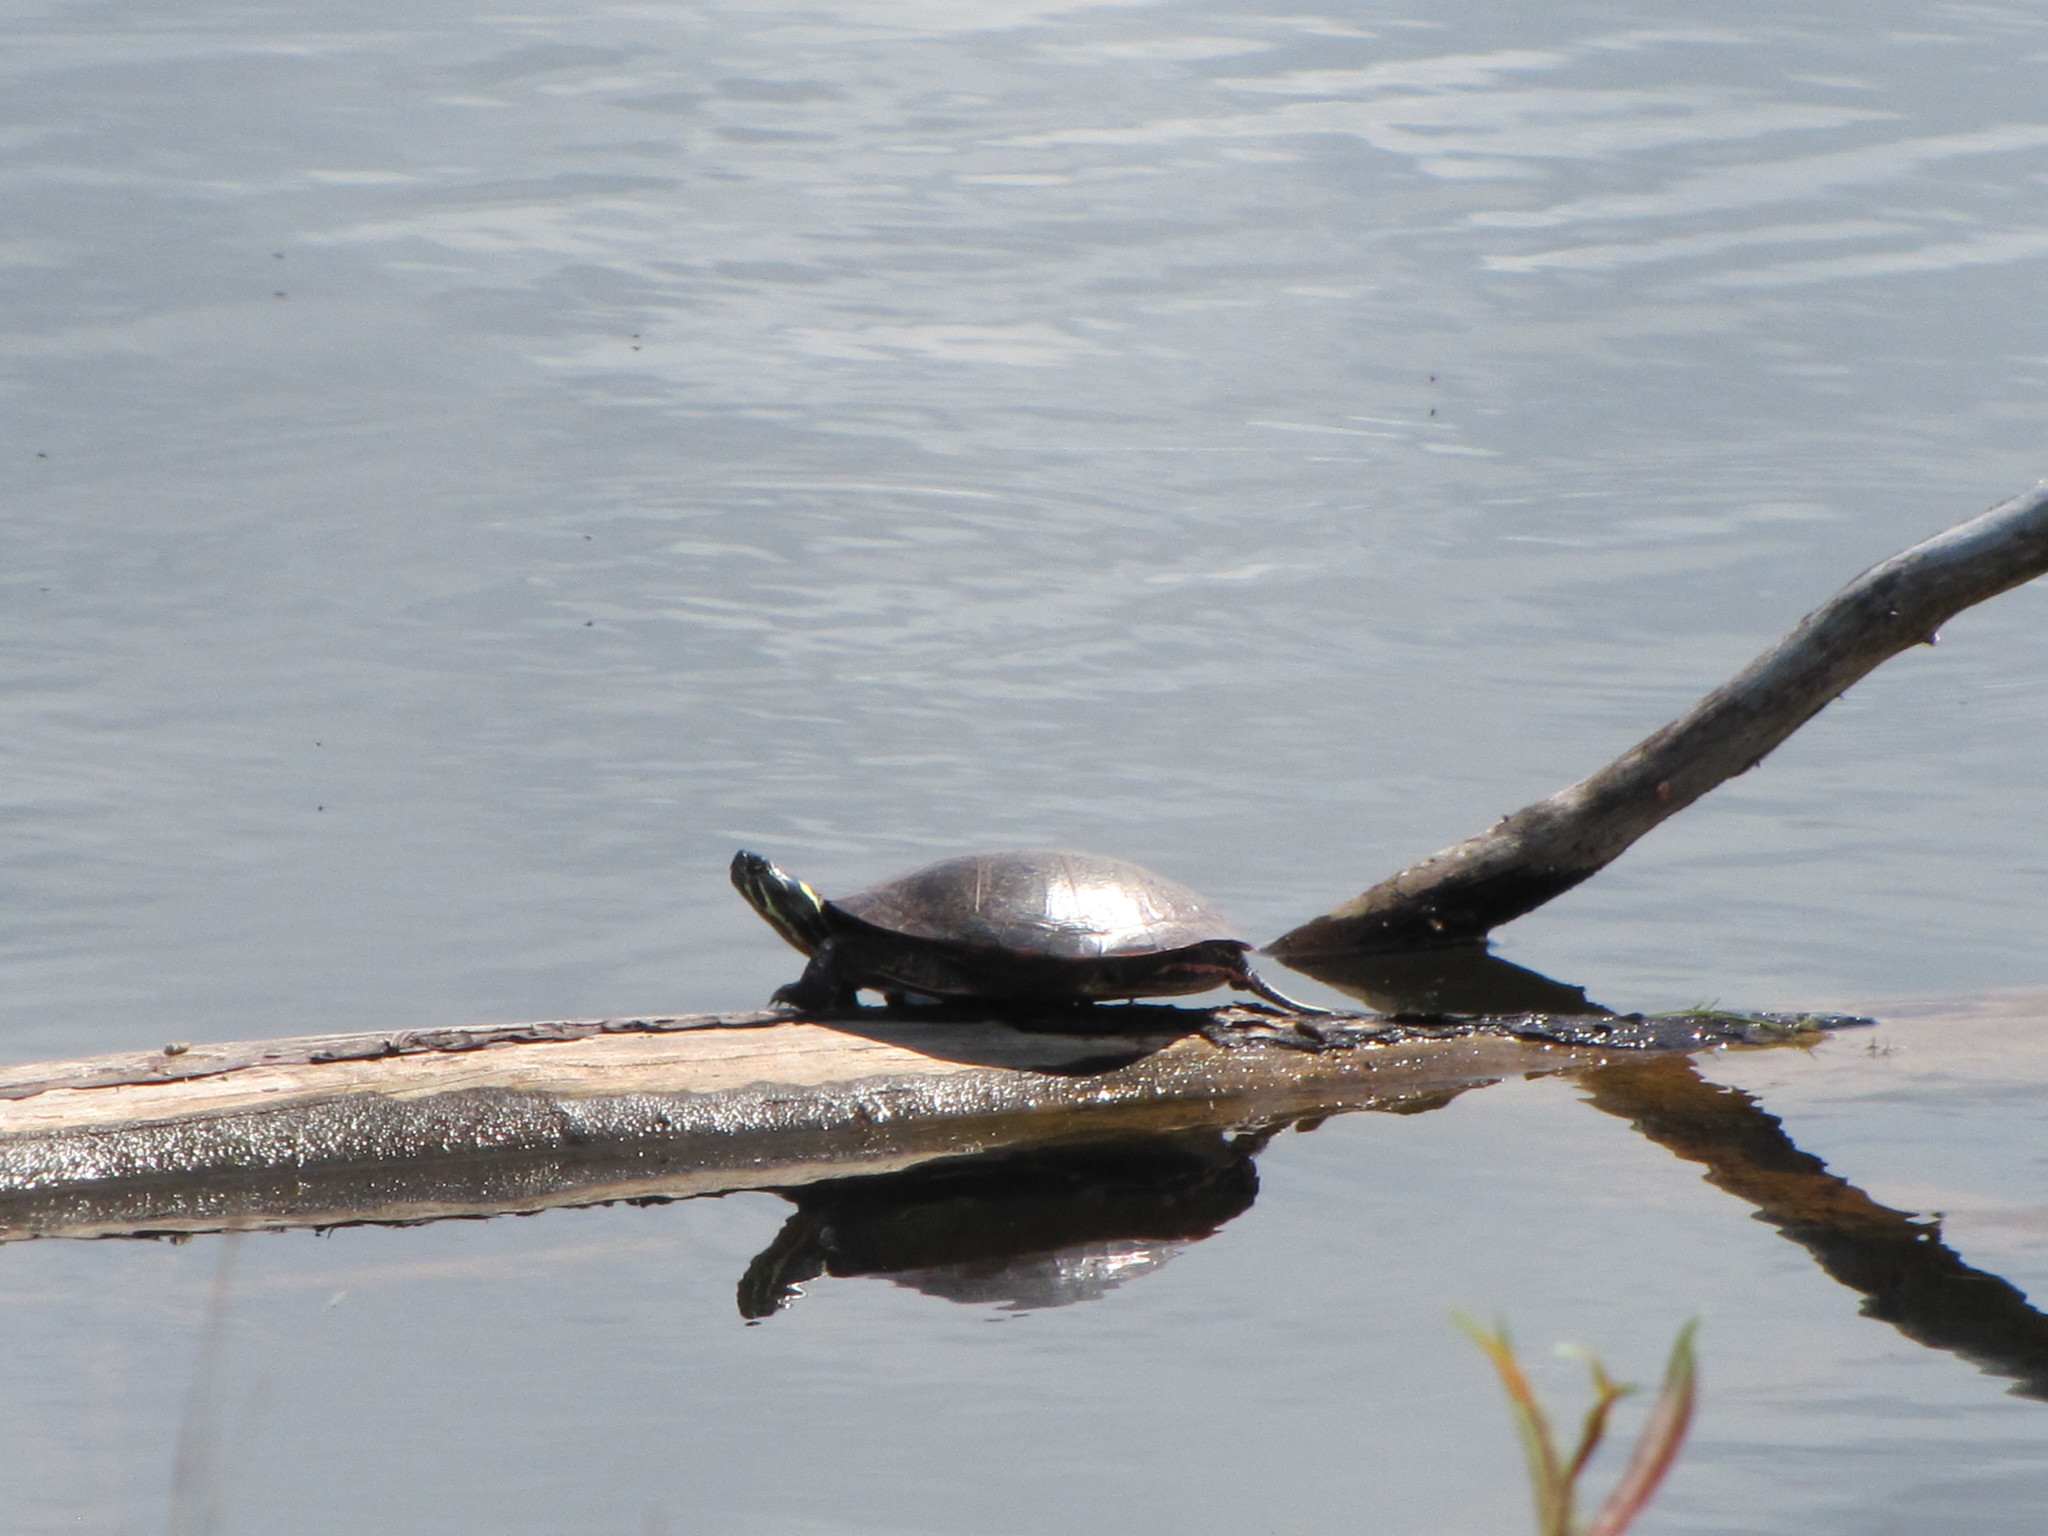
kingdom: Animalia
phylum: Chordata
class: Testudines
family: Emydidae
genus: Chrysemys
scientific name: Chrysemys picta
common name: Painted turtle
